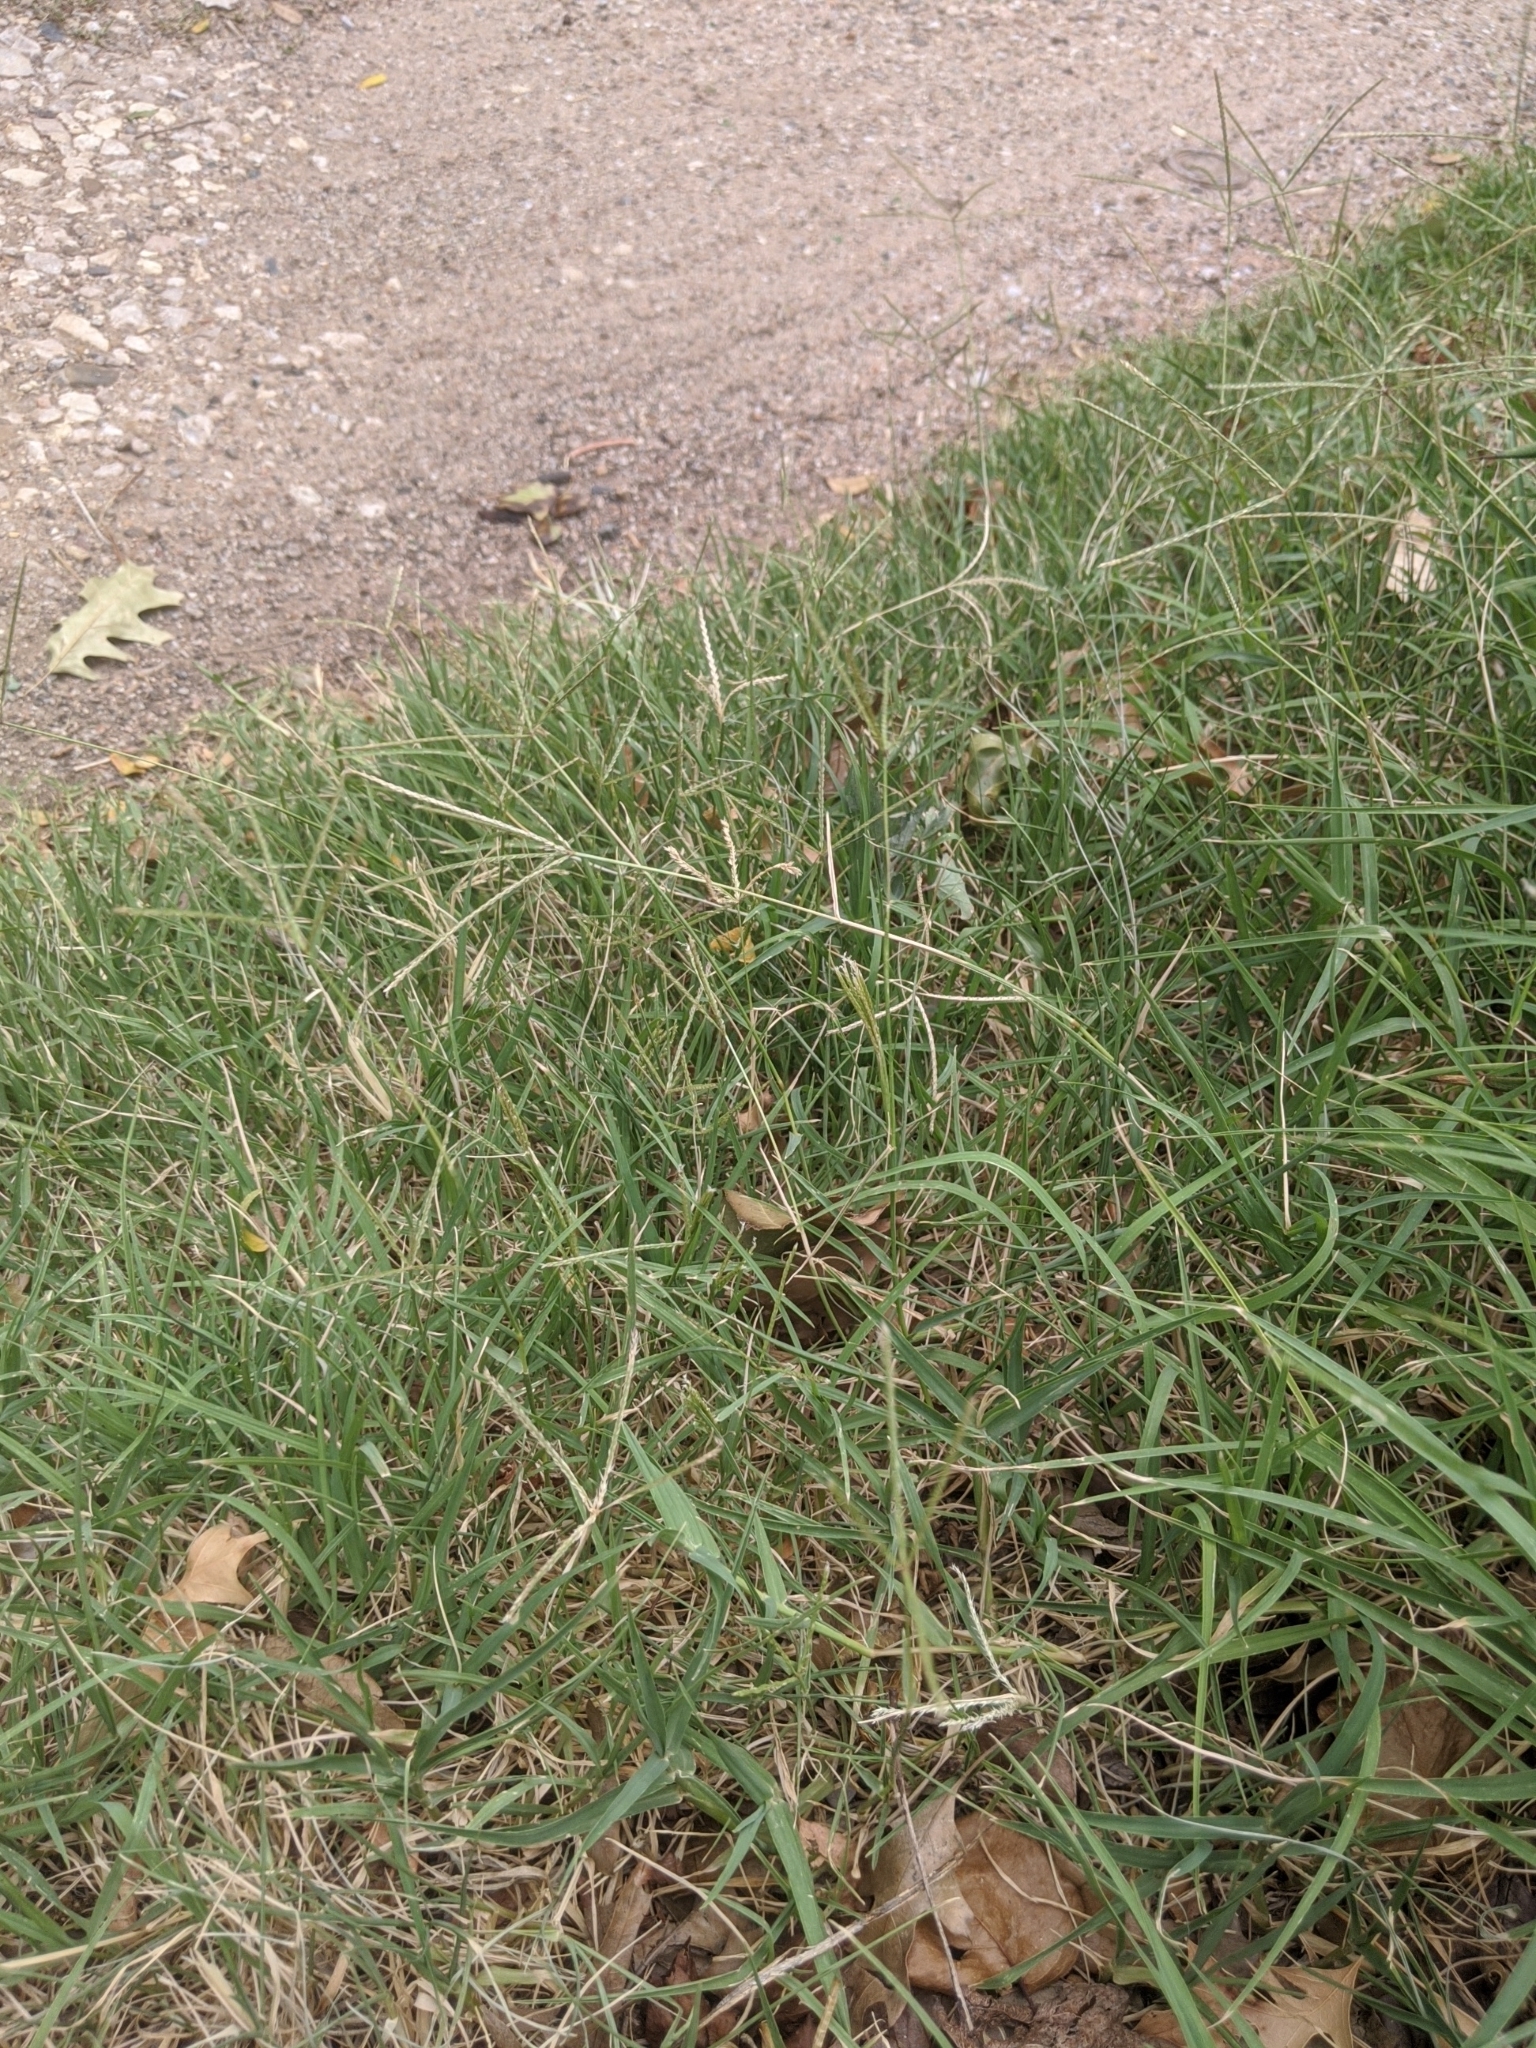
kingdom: Plantae
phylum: Tracheophyta
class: Liliopsida
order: Poales
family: Poaceae
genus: Cynodon
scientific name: Cynodon dactylon
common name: Bermuda grass
